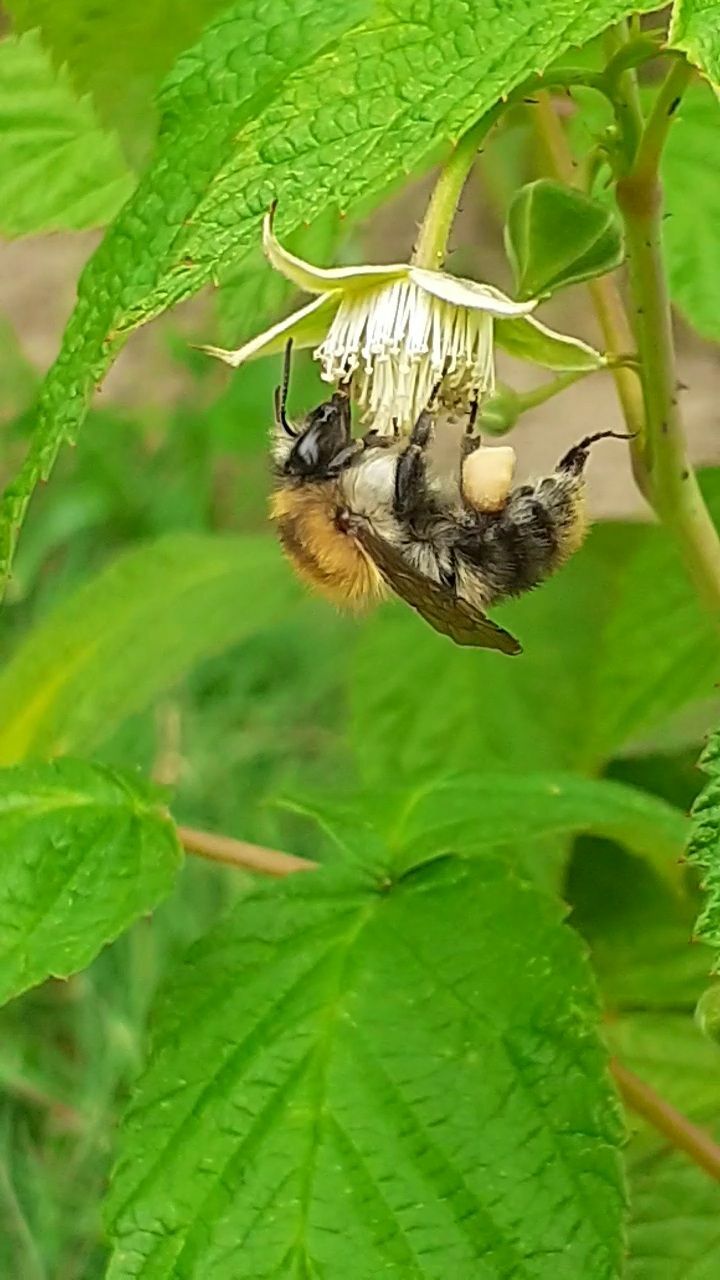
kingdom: Animalia
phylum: Arthropoda
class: Insecta
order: Hymenoptera
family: Apidae
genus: Bombus
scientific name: Bombus pascuorum
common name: Common carder bee
